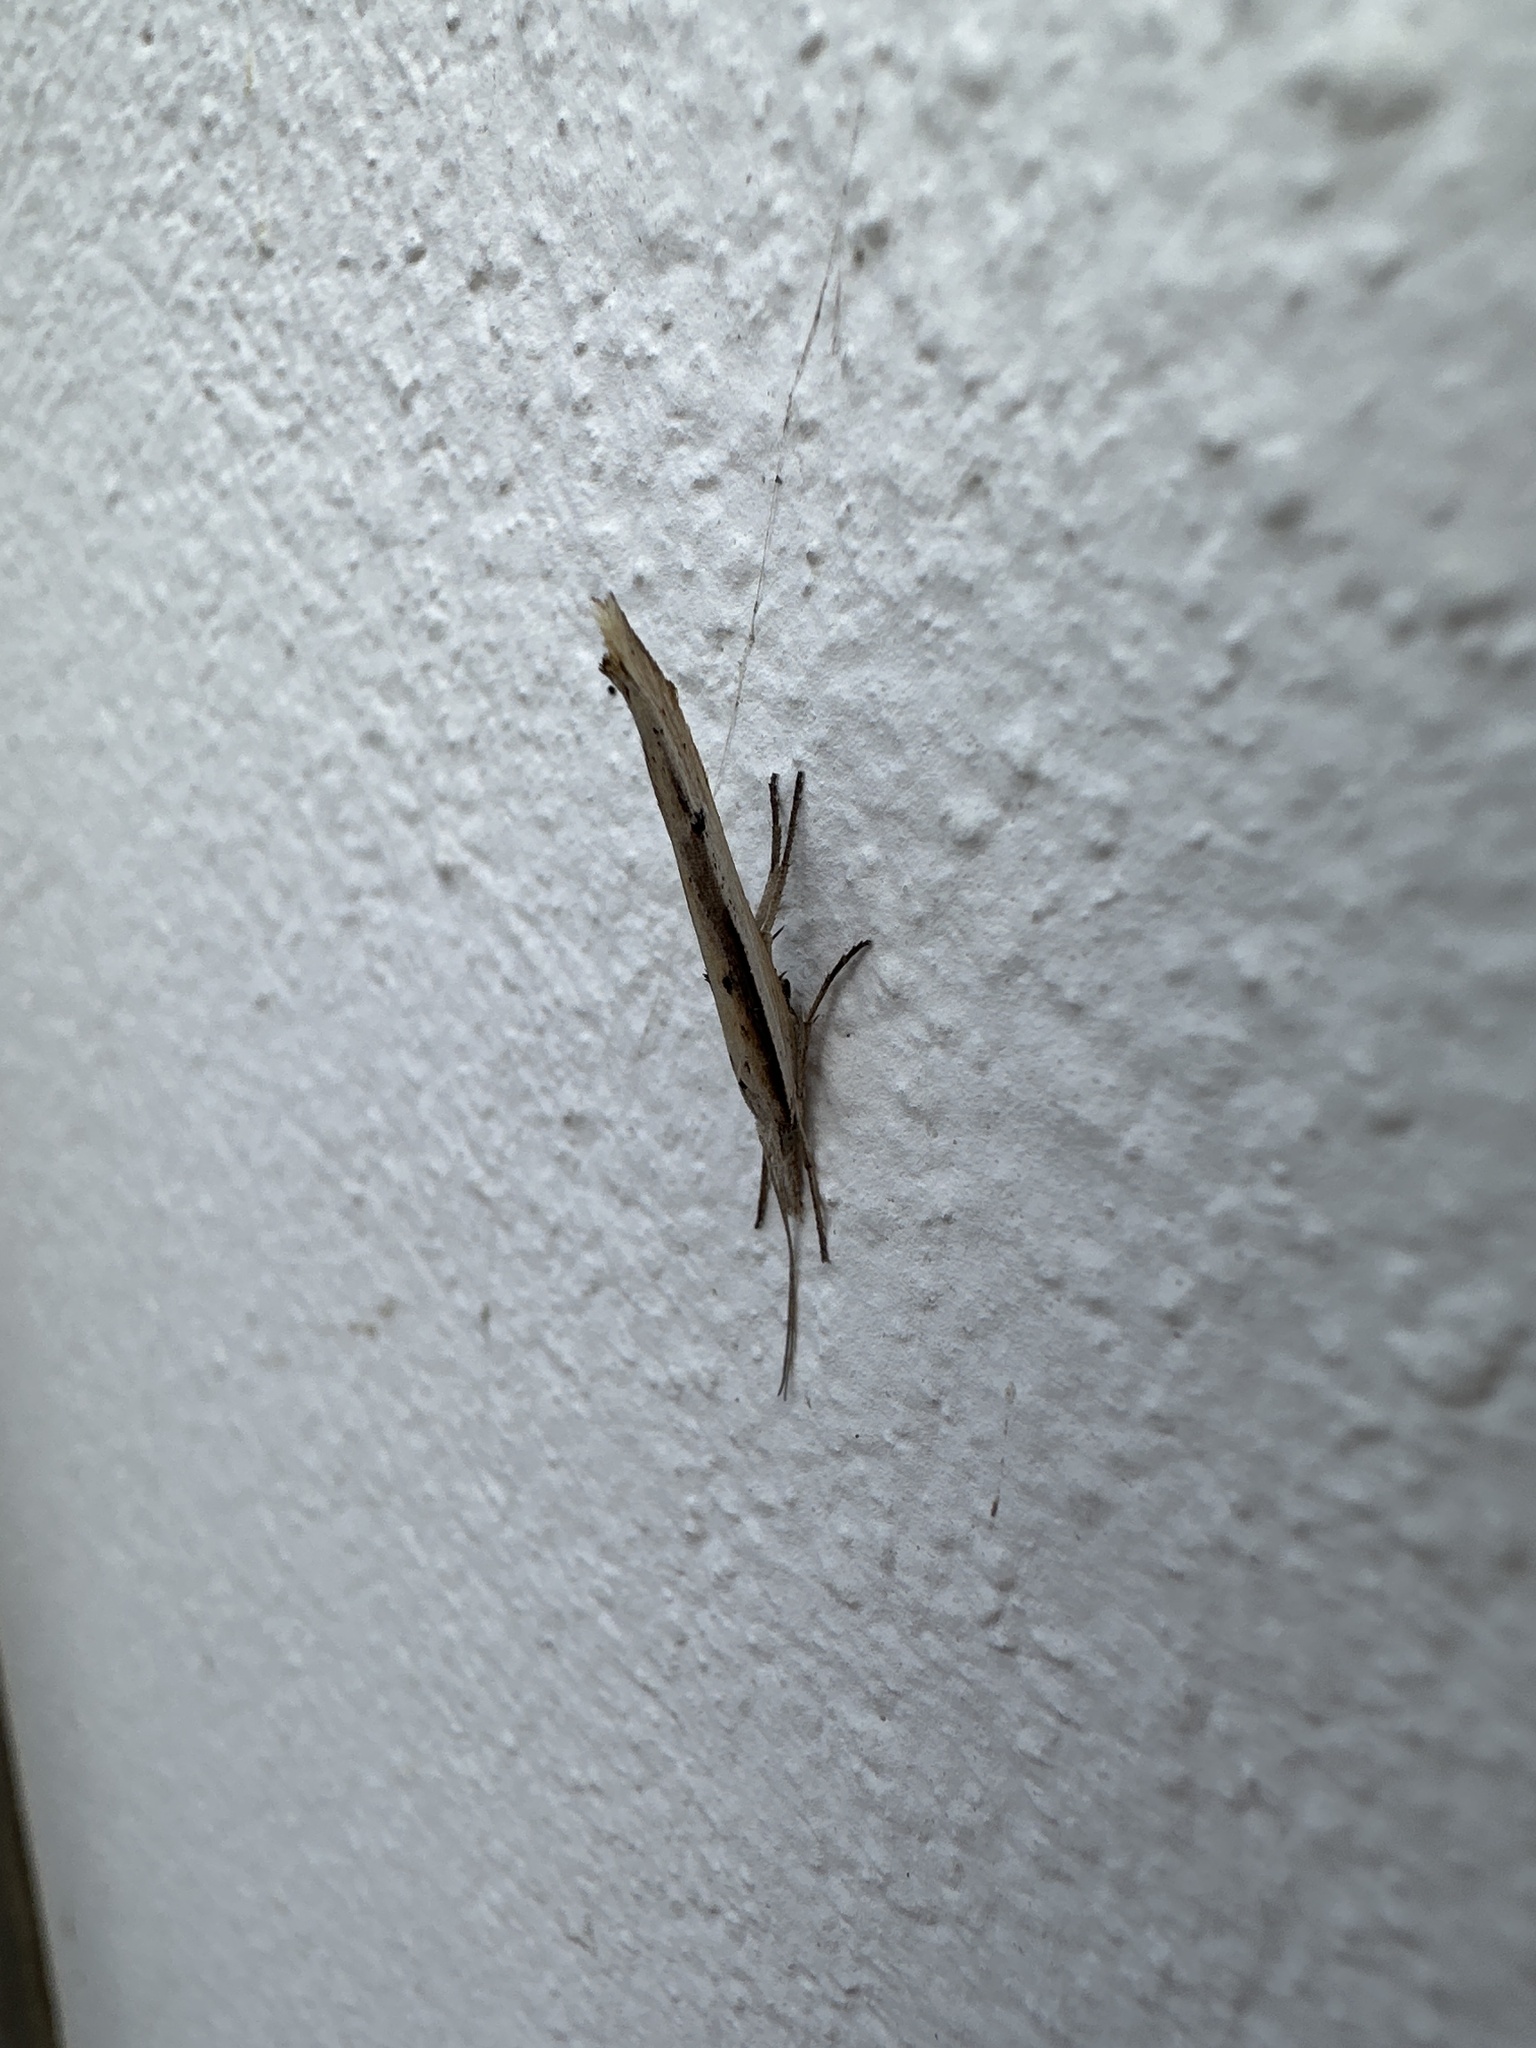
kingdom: Animalia
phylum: Arthropoda
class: Insecta
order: Lepidoptera
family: Ypsolophidae
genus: Ypsolopha
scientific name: Ypsolopha mucronella
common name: Spindle smudge
